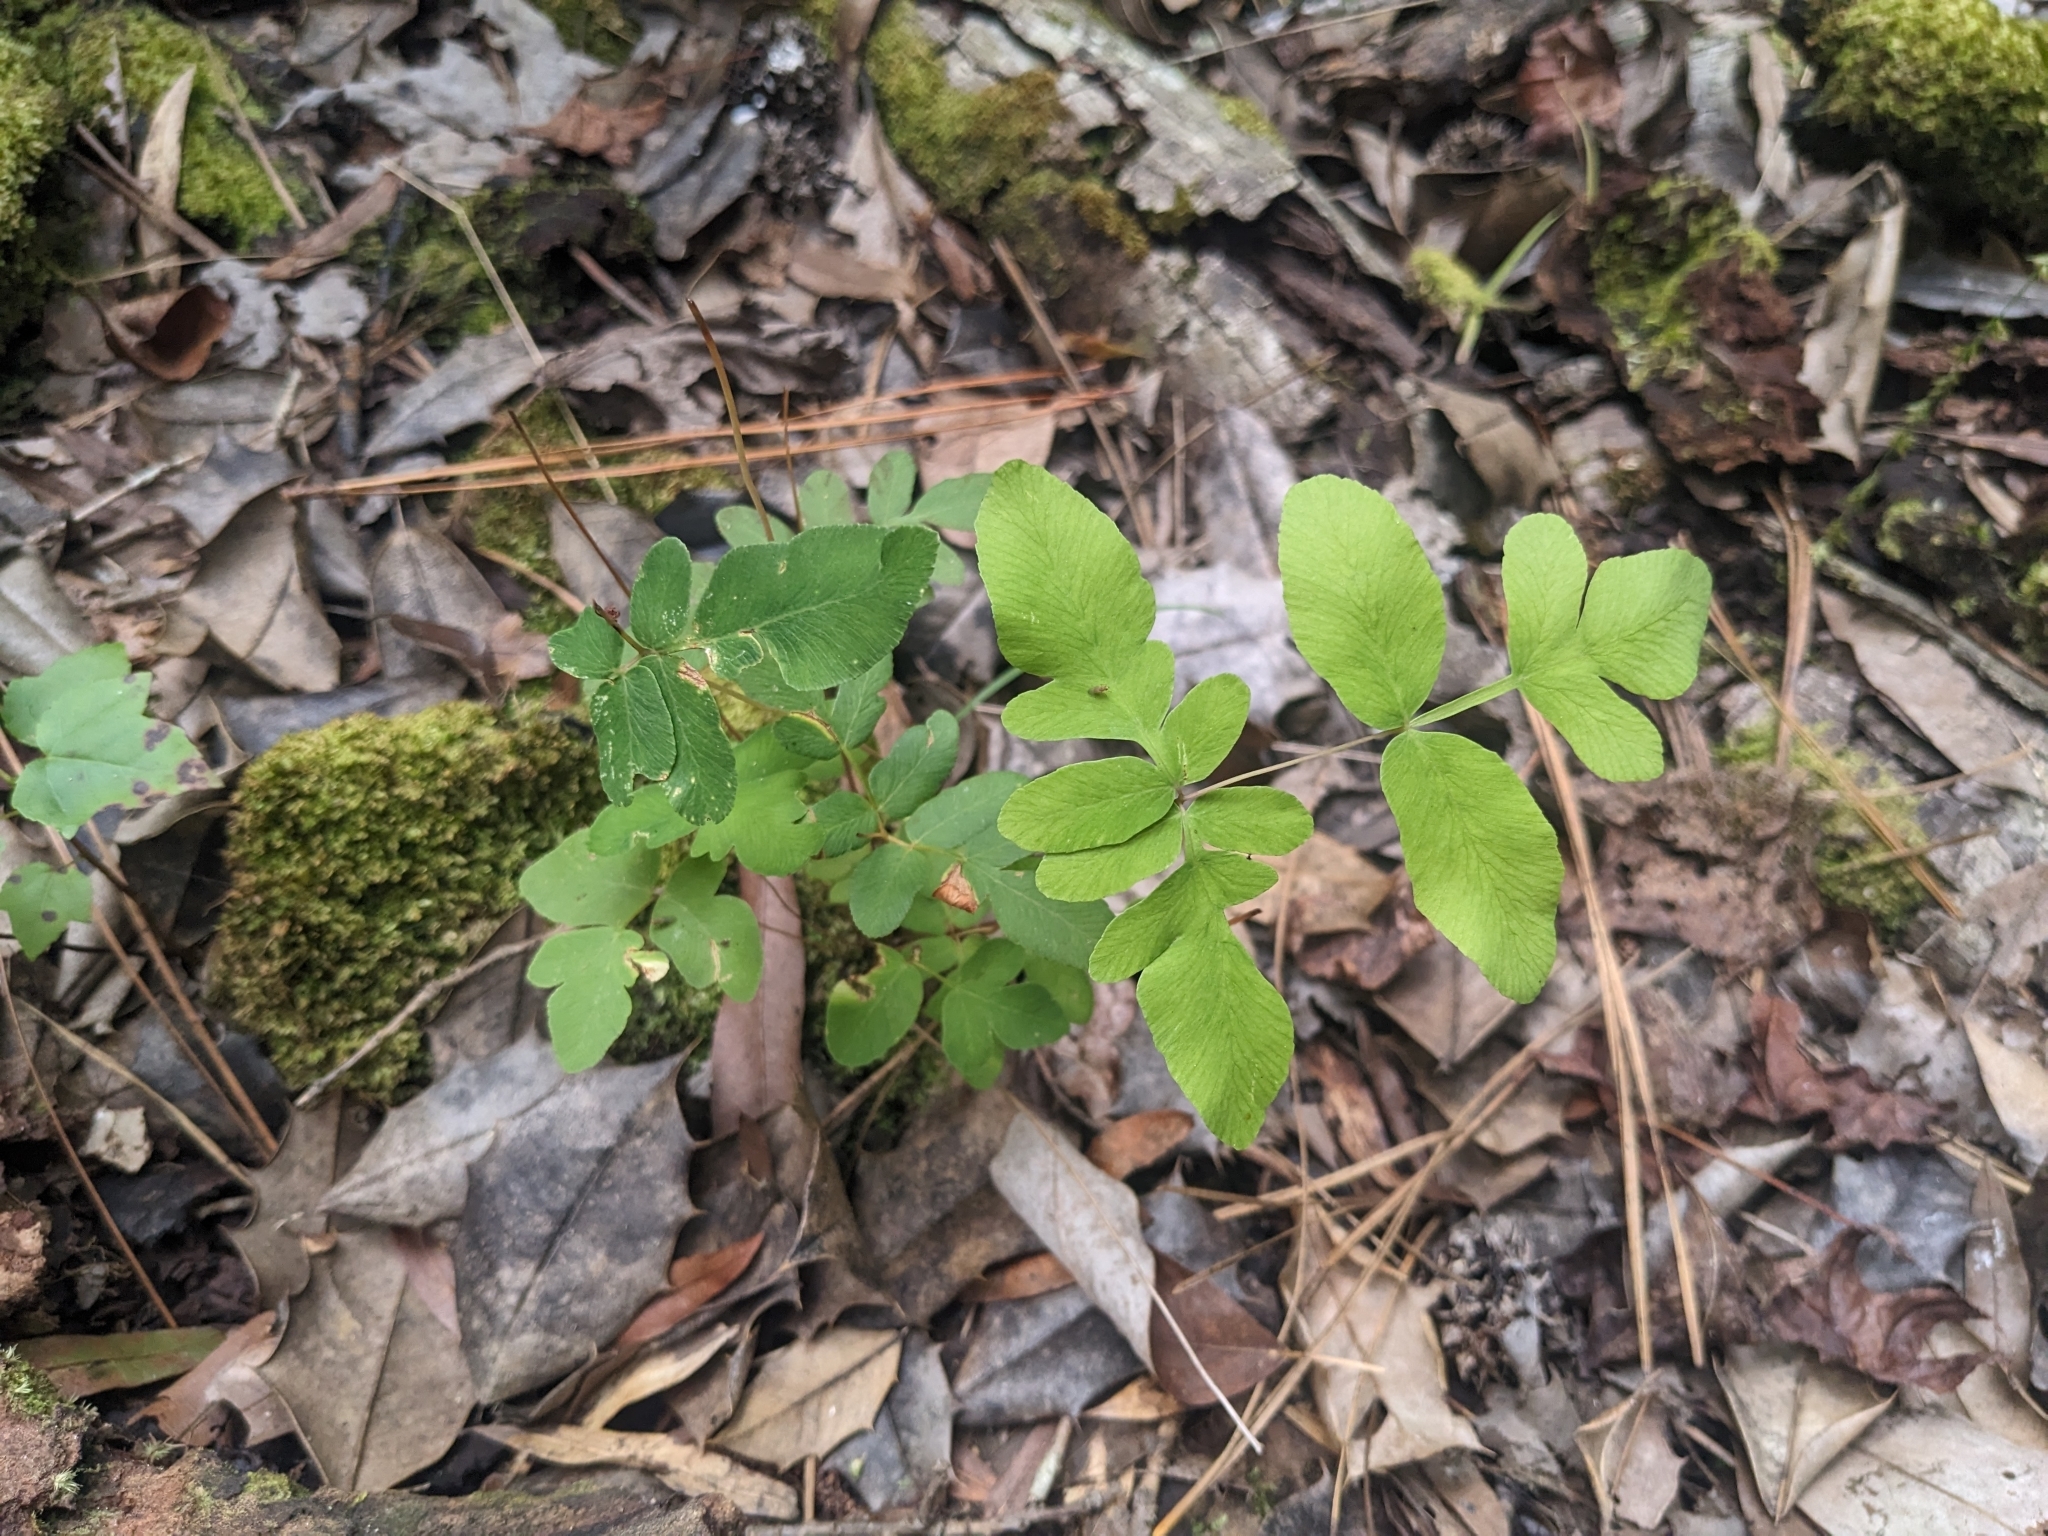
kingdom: Plantae
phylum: Tracheophyta
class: Polypodiopsida
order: Osmundales
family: Osmundaceae
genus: Osmunda
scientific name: Osmunda spectabilis
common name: American royal fern
